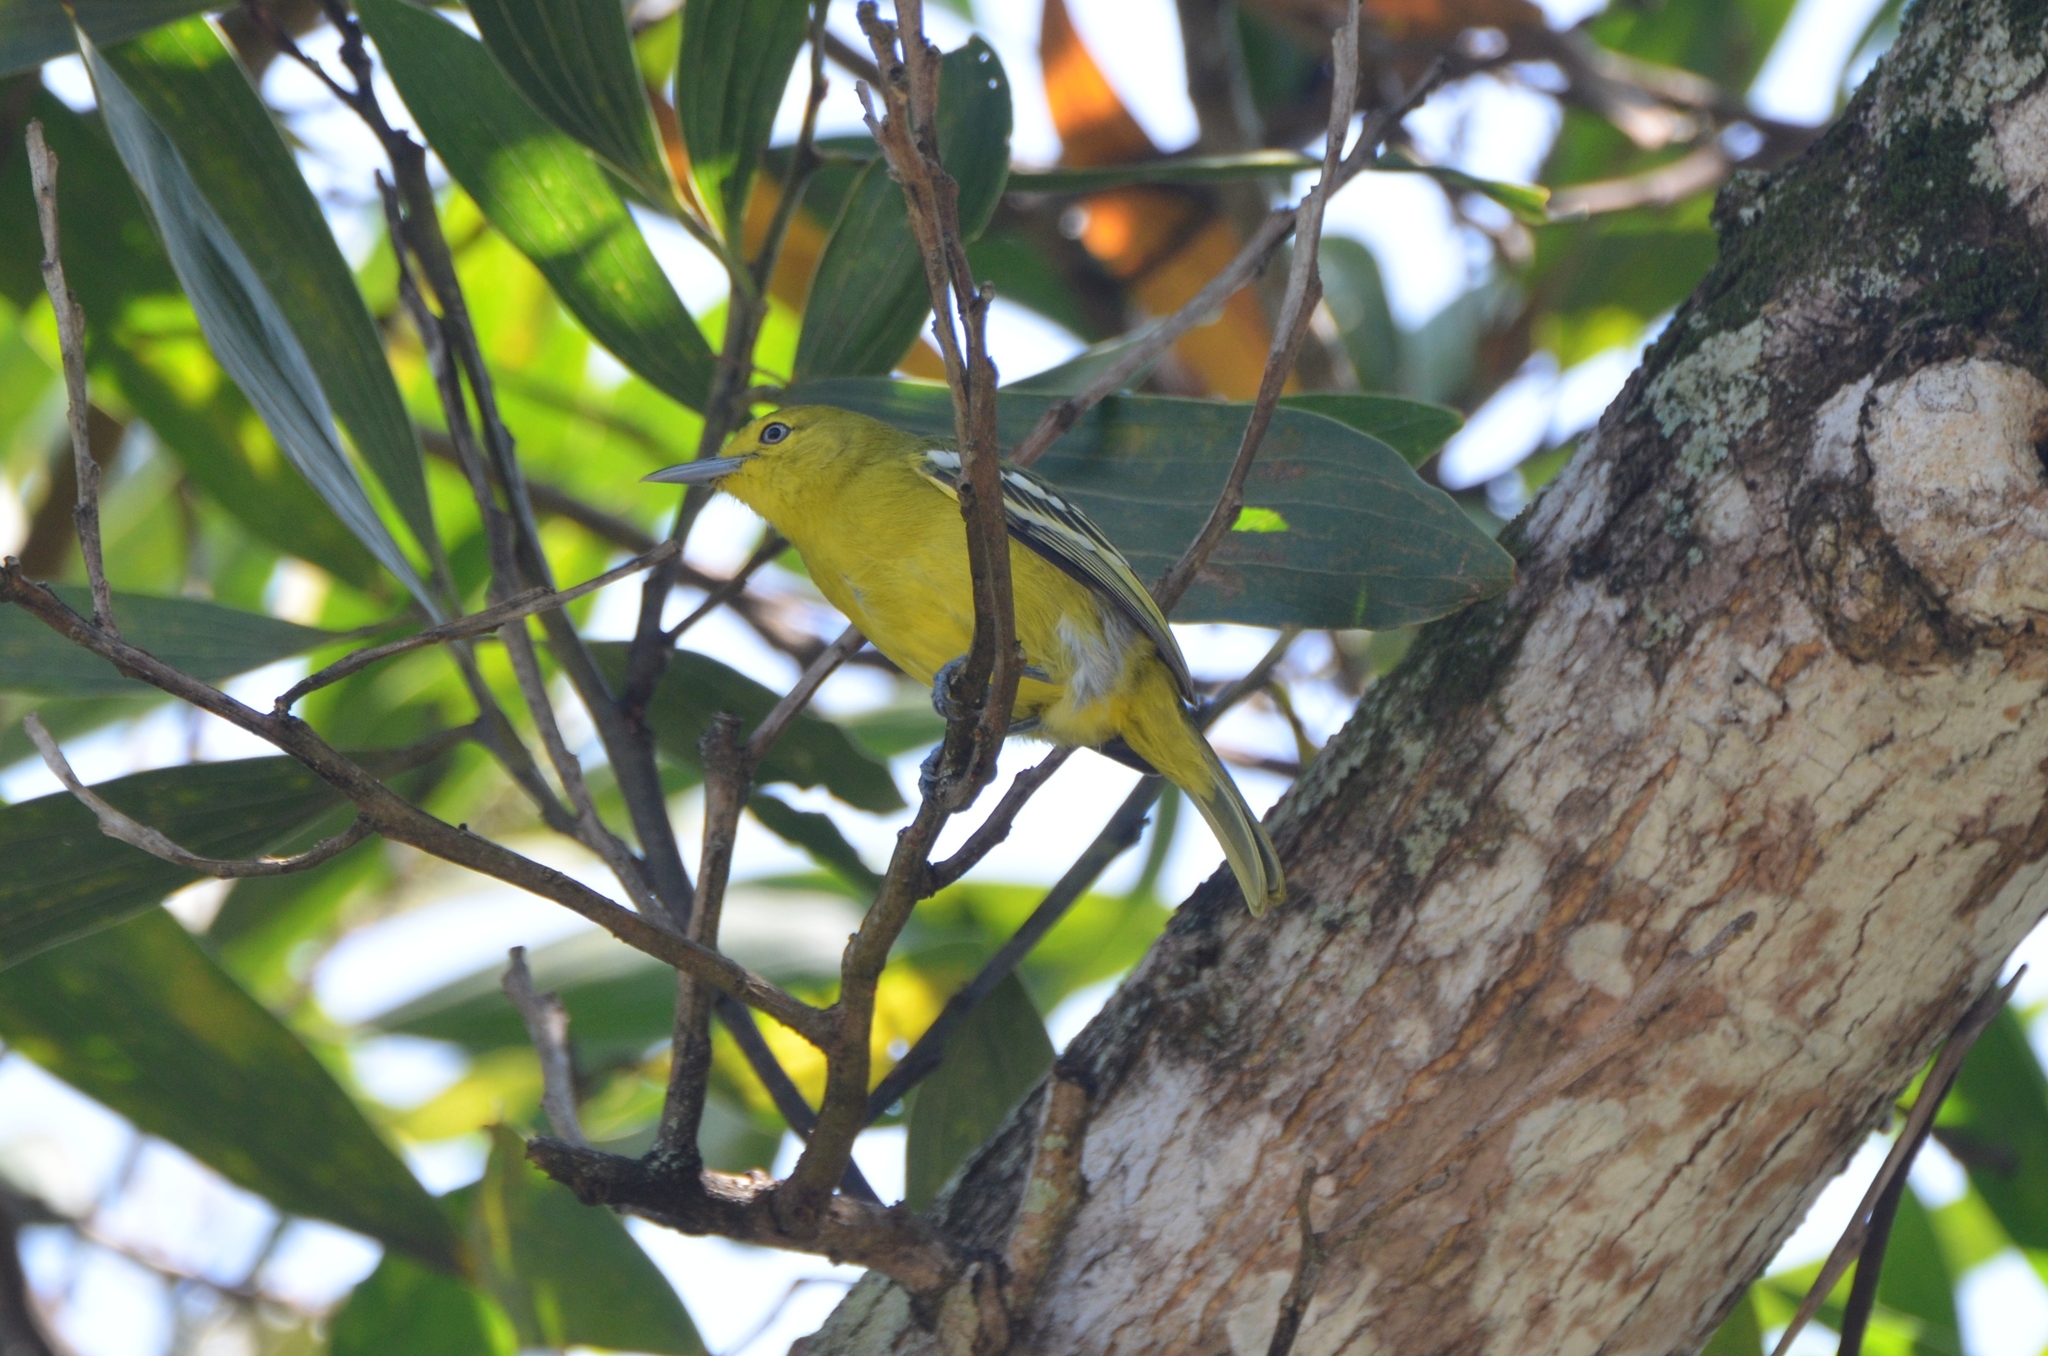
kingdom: Animalia
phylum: Chordata
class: Aves
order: Passeriformes
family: Aegithinidae
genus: Aegithina
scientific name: Aegithina tiphia
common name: Common iora
